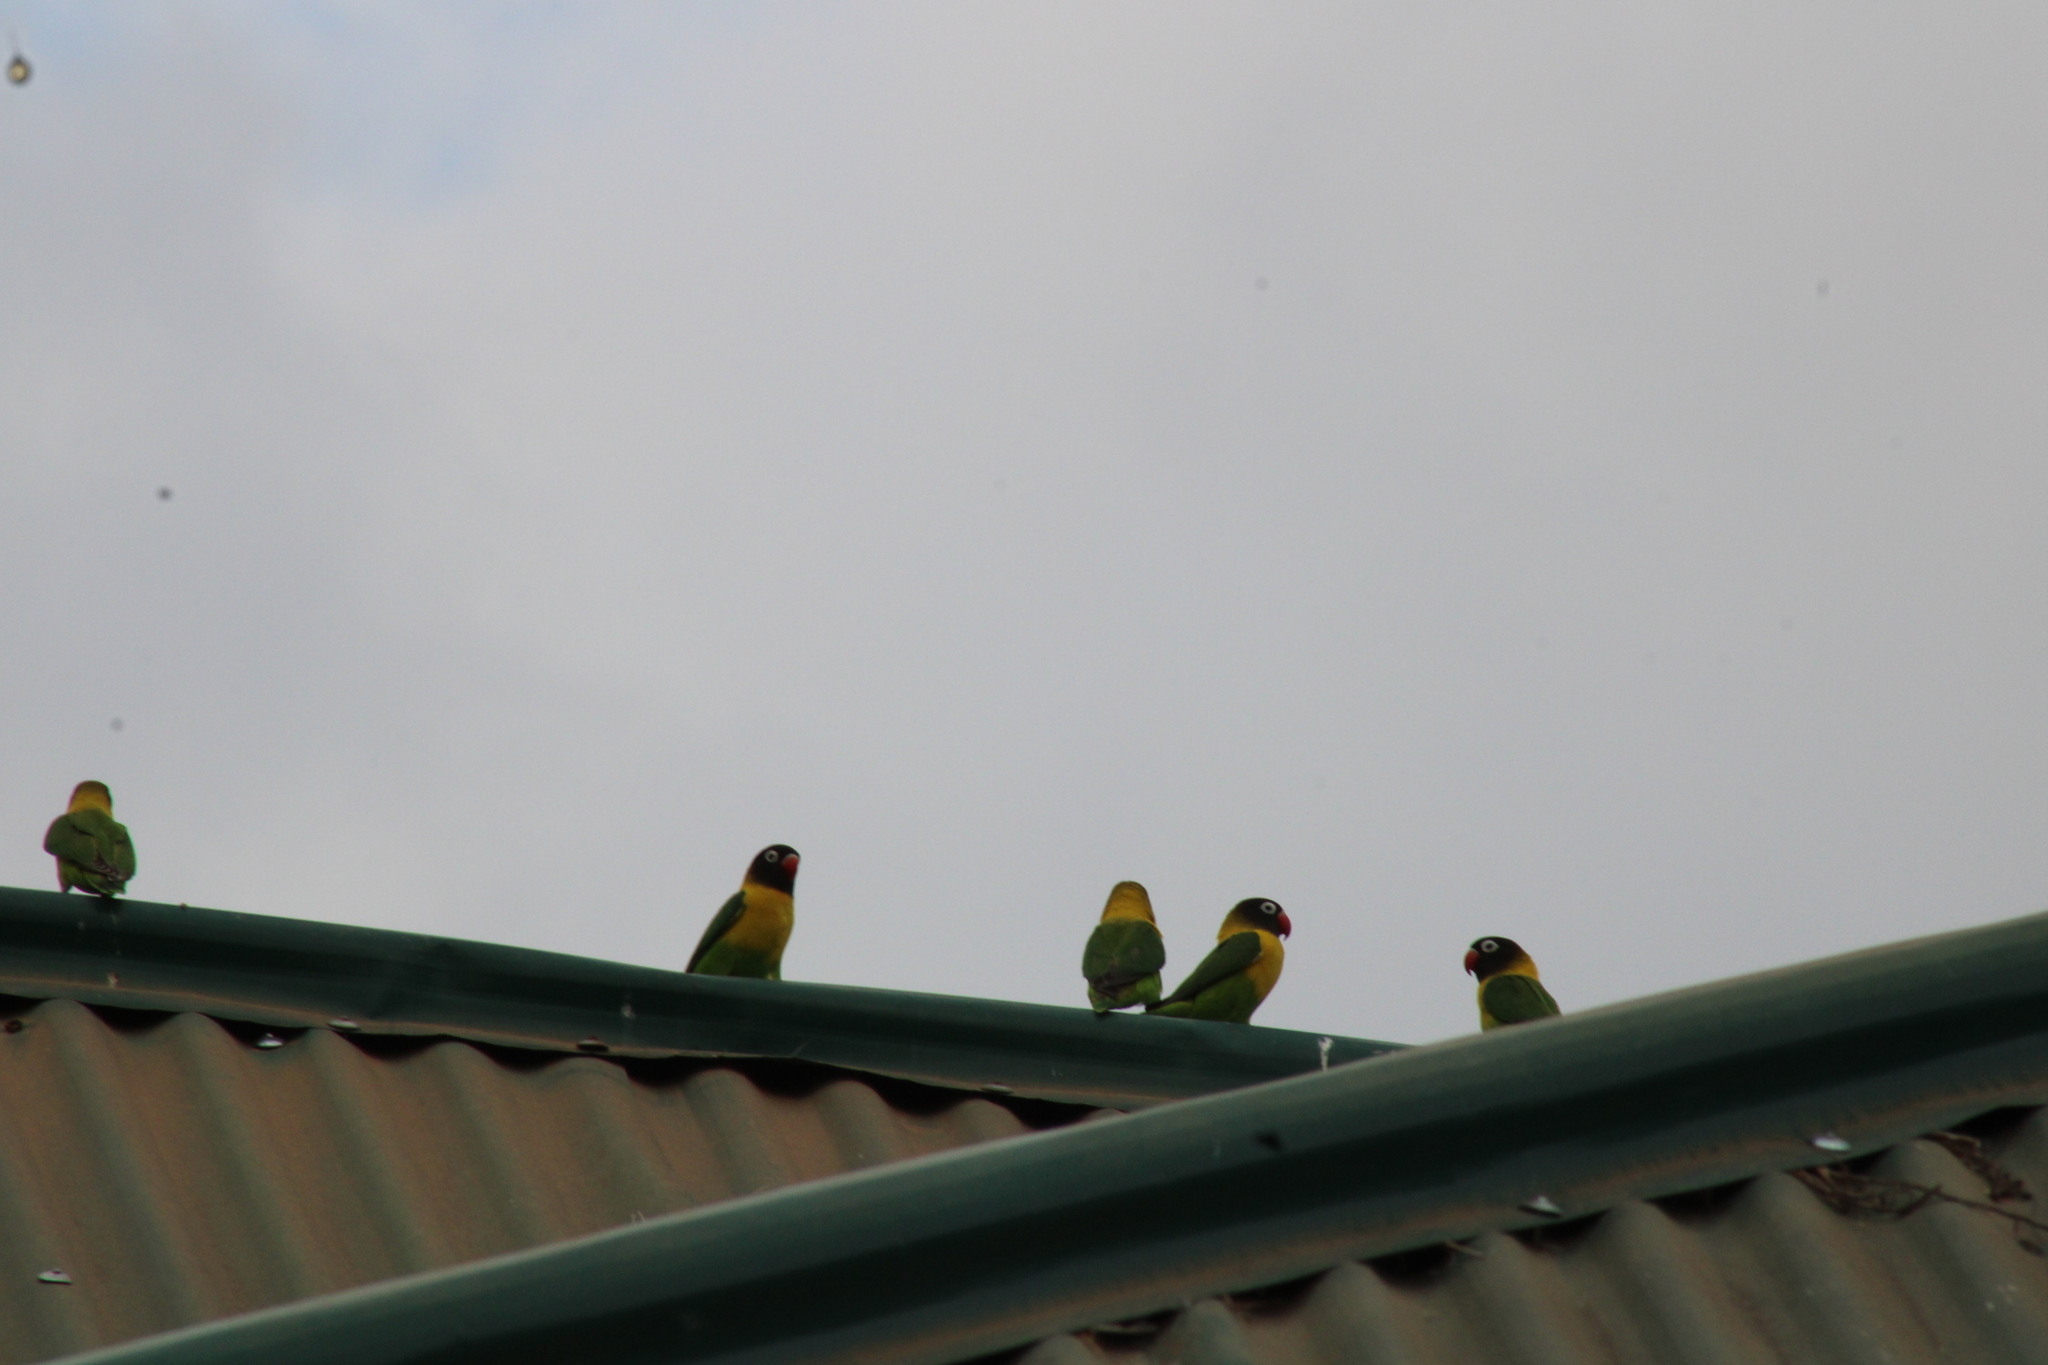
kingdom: Animalia
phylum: Chordata
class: Aves
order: Psittaciformes
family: Psittacidae
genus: Agapornis
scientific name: Agapornis personatus
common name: Yellow-collared lovebird
